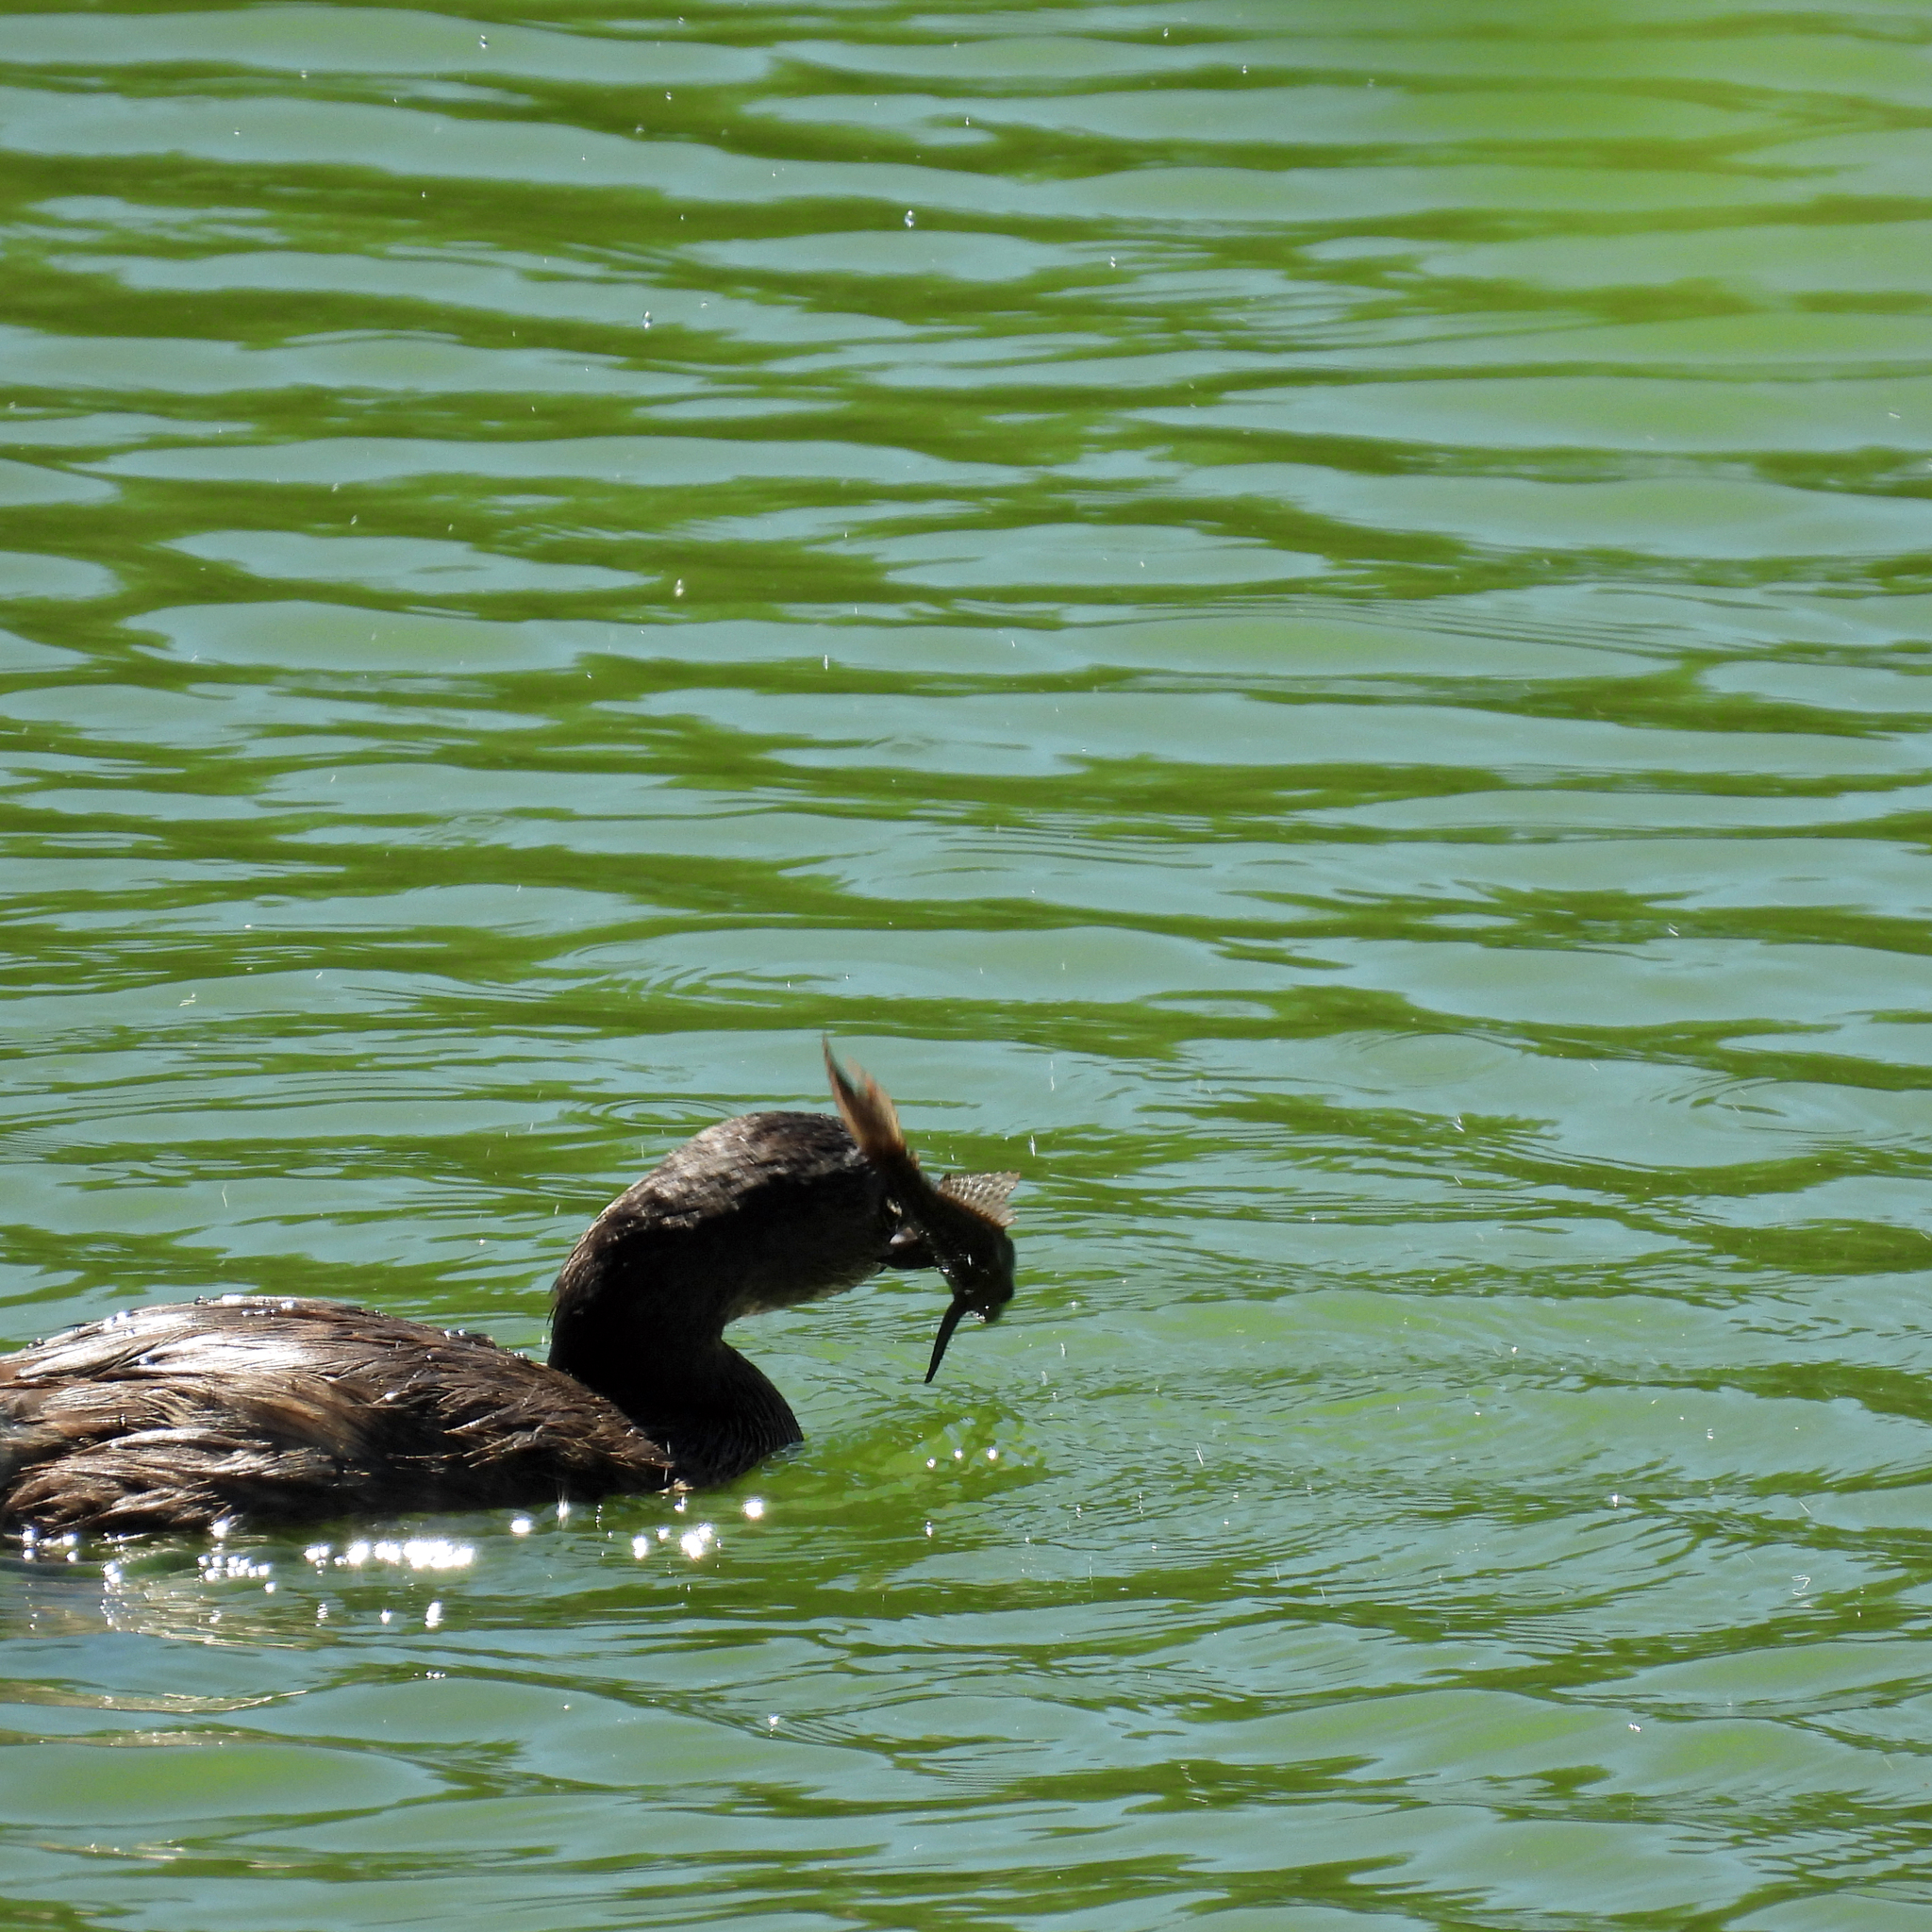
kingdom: Animalia
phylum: Chordata
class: Aves
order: Podicipediformes
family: Podicipedidae
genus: Podilymbus
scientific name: Podilymbus podiceps
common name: Pied-billed grebe
